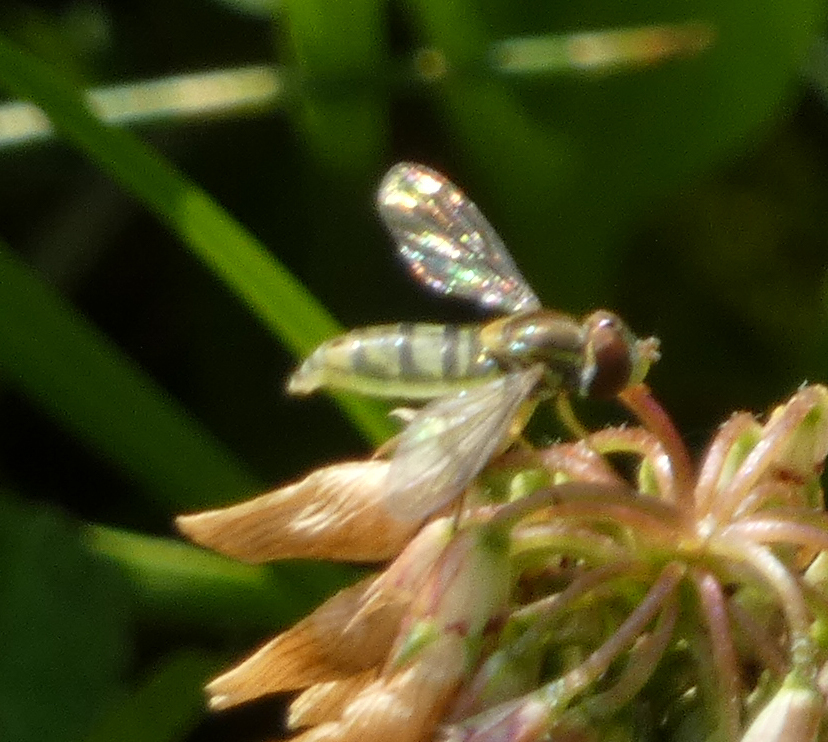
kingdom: Animalia
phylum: Arthropoda
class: Insecta
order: Diptera
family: Syrphidae
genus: Toxomerus
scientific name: Toxomerus marginatus
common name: Syrphid fly
